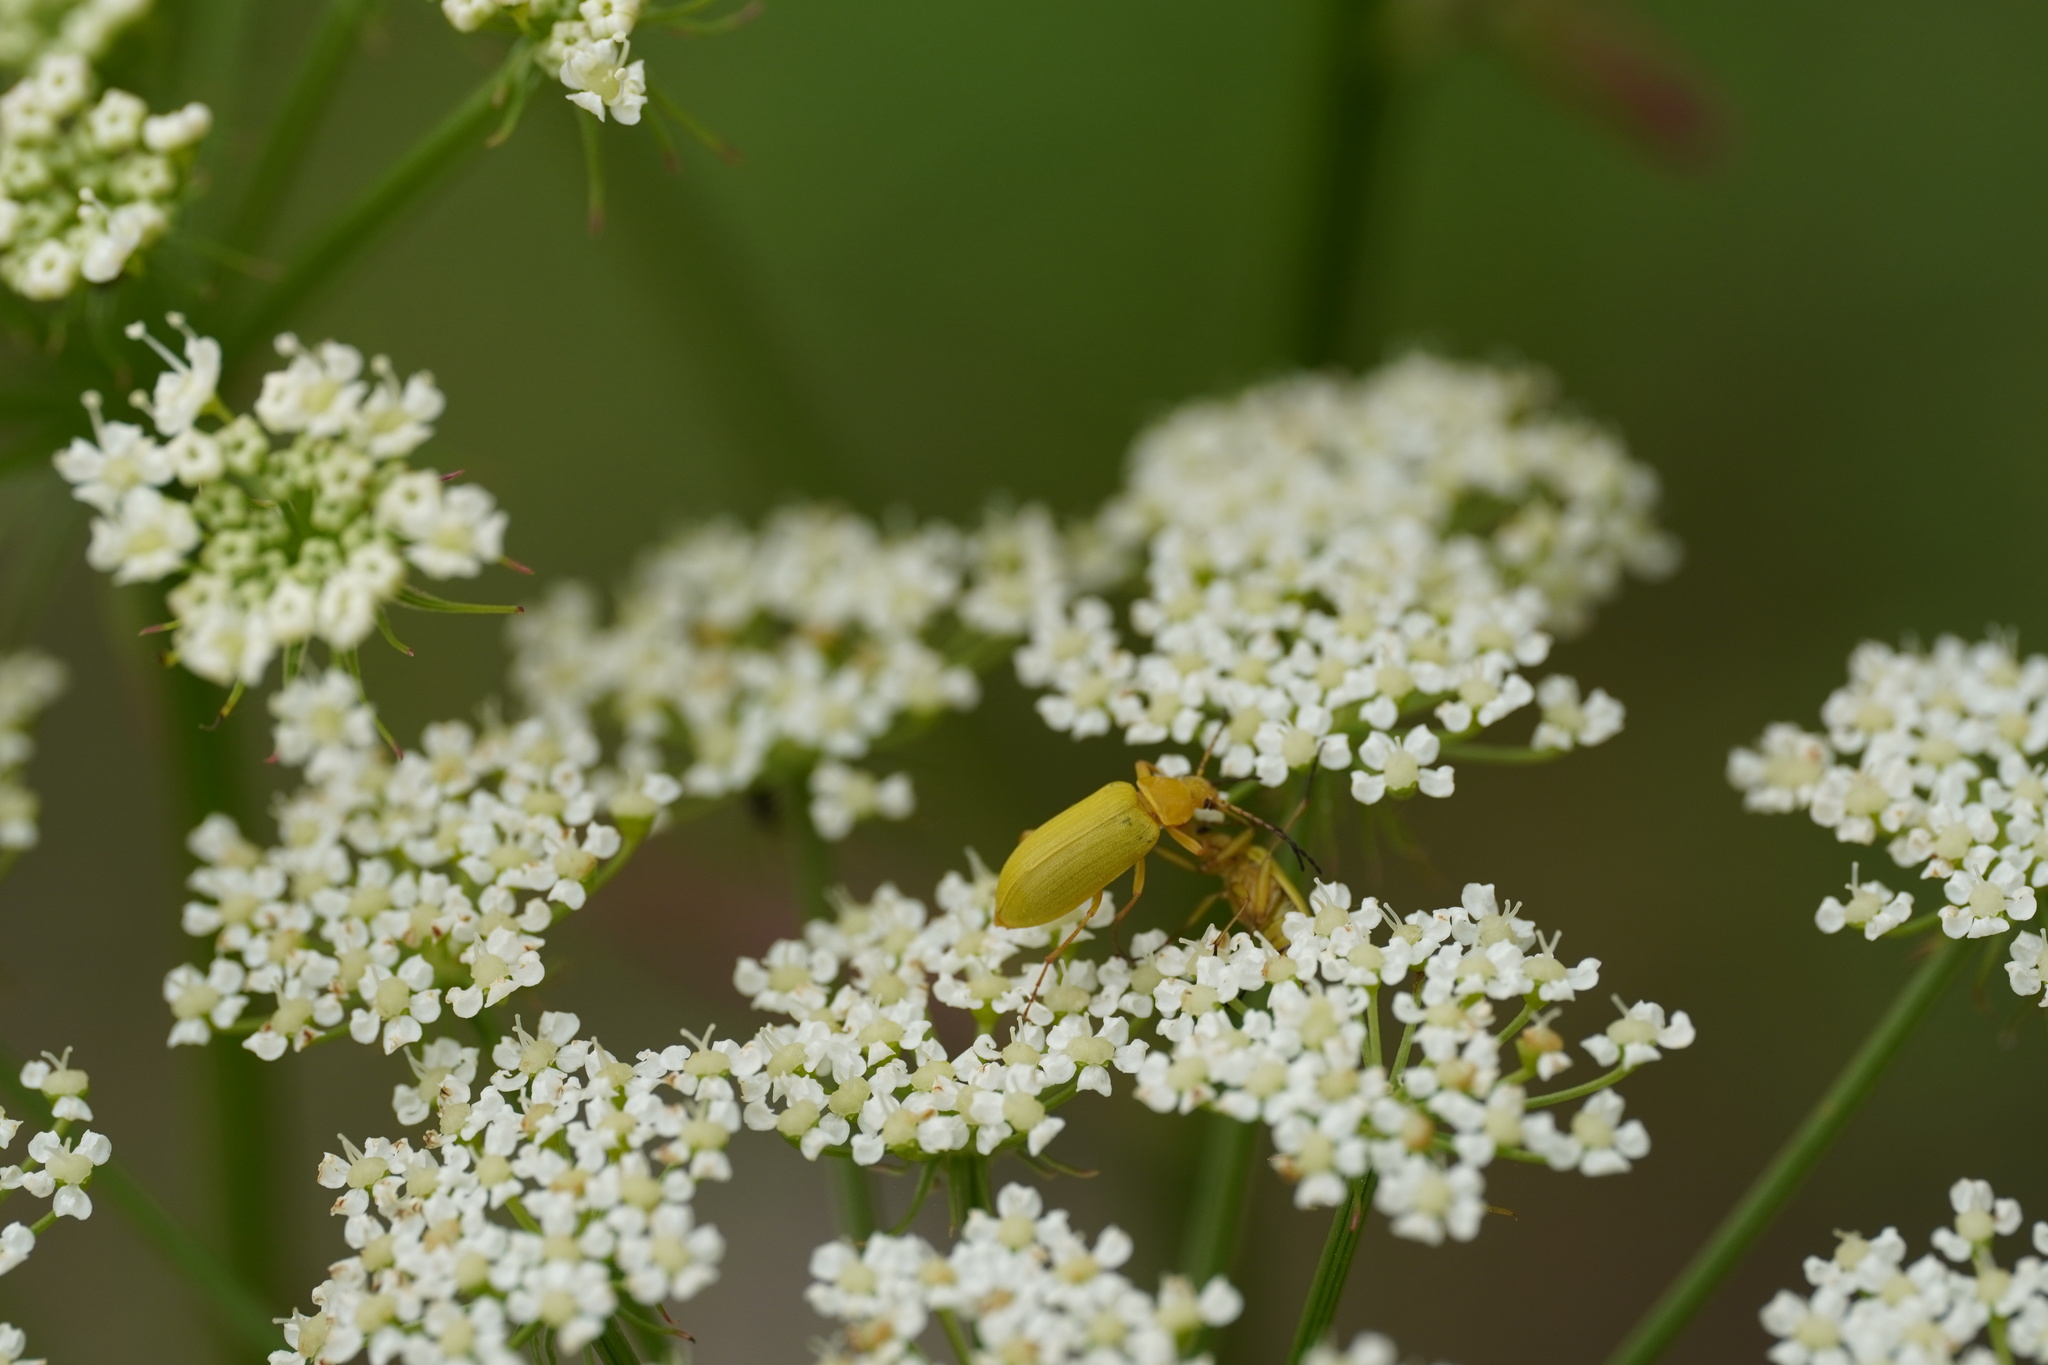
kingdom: Animalia
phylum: Arthropoda
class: Insecta
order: Coleoptera
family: Tenebrionidae
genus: Cteniopus
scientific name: Cteniopus sulphureus
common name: Sulphur beetle
